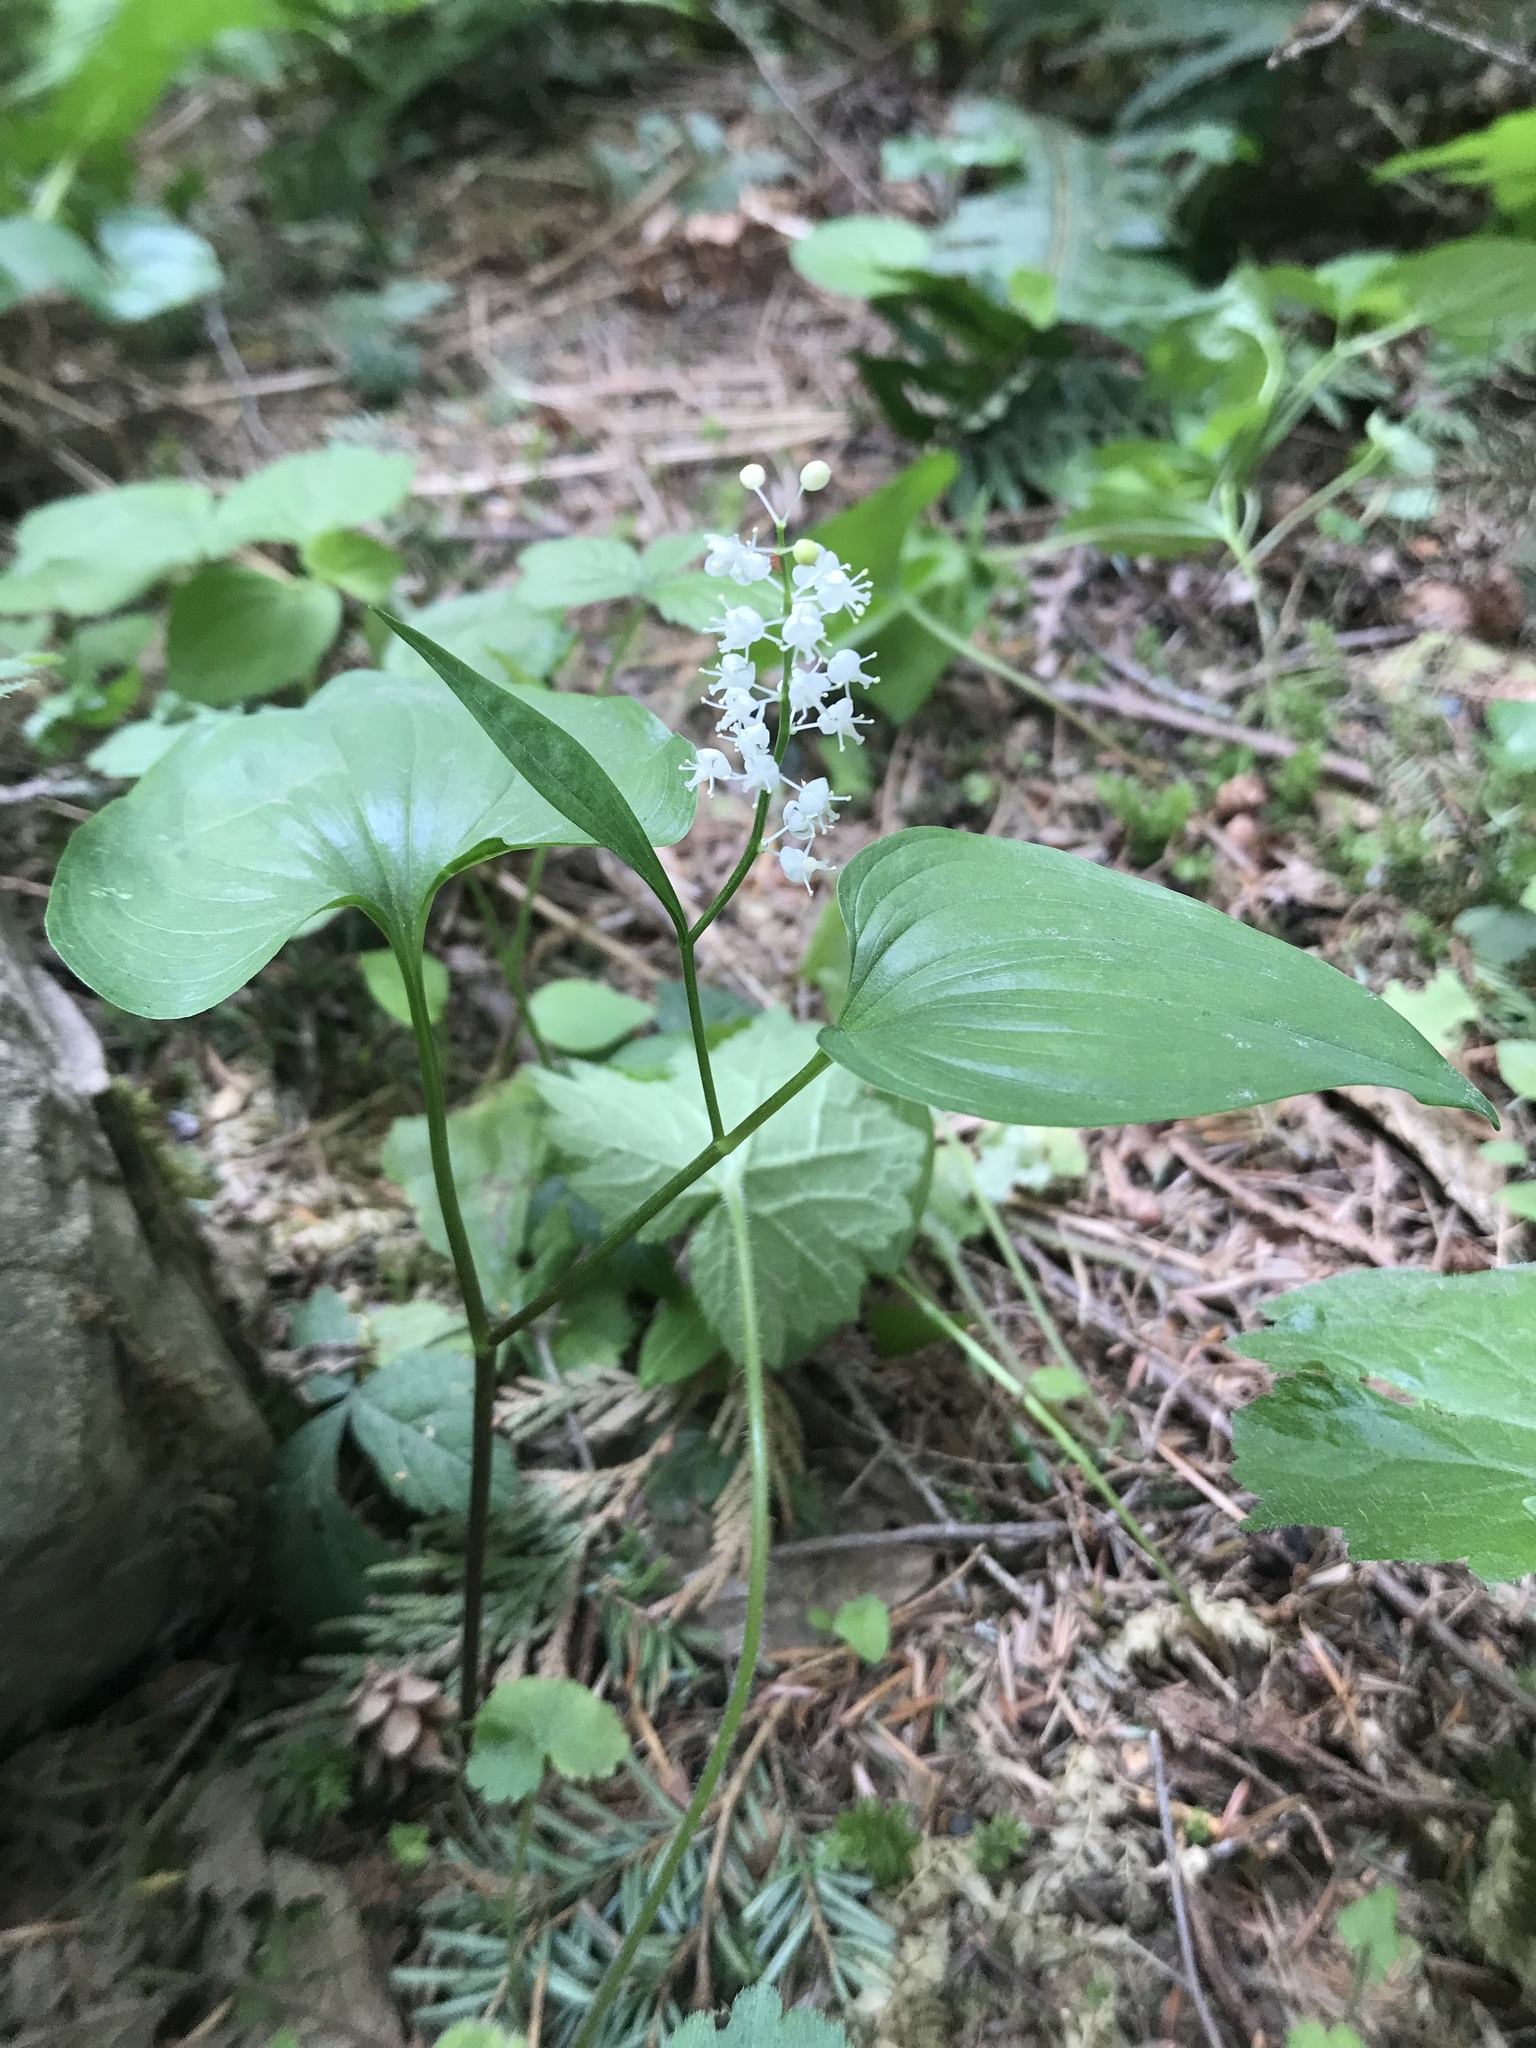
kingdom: Plantae
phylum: Tracheophyta
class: Liliopsida
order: Asparagales
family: Asparagaceae
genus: Maianthemum
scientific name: Maianthemum dilatatum
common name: False lily-of-the-valley
